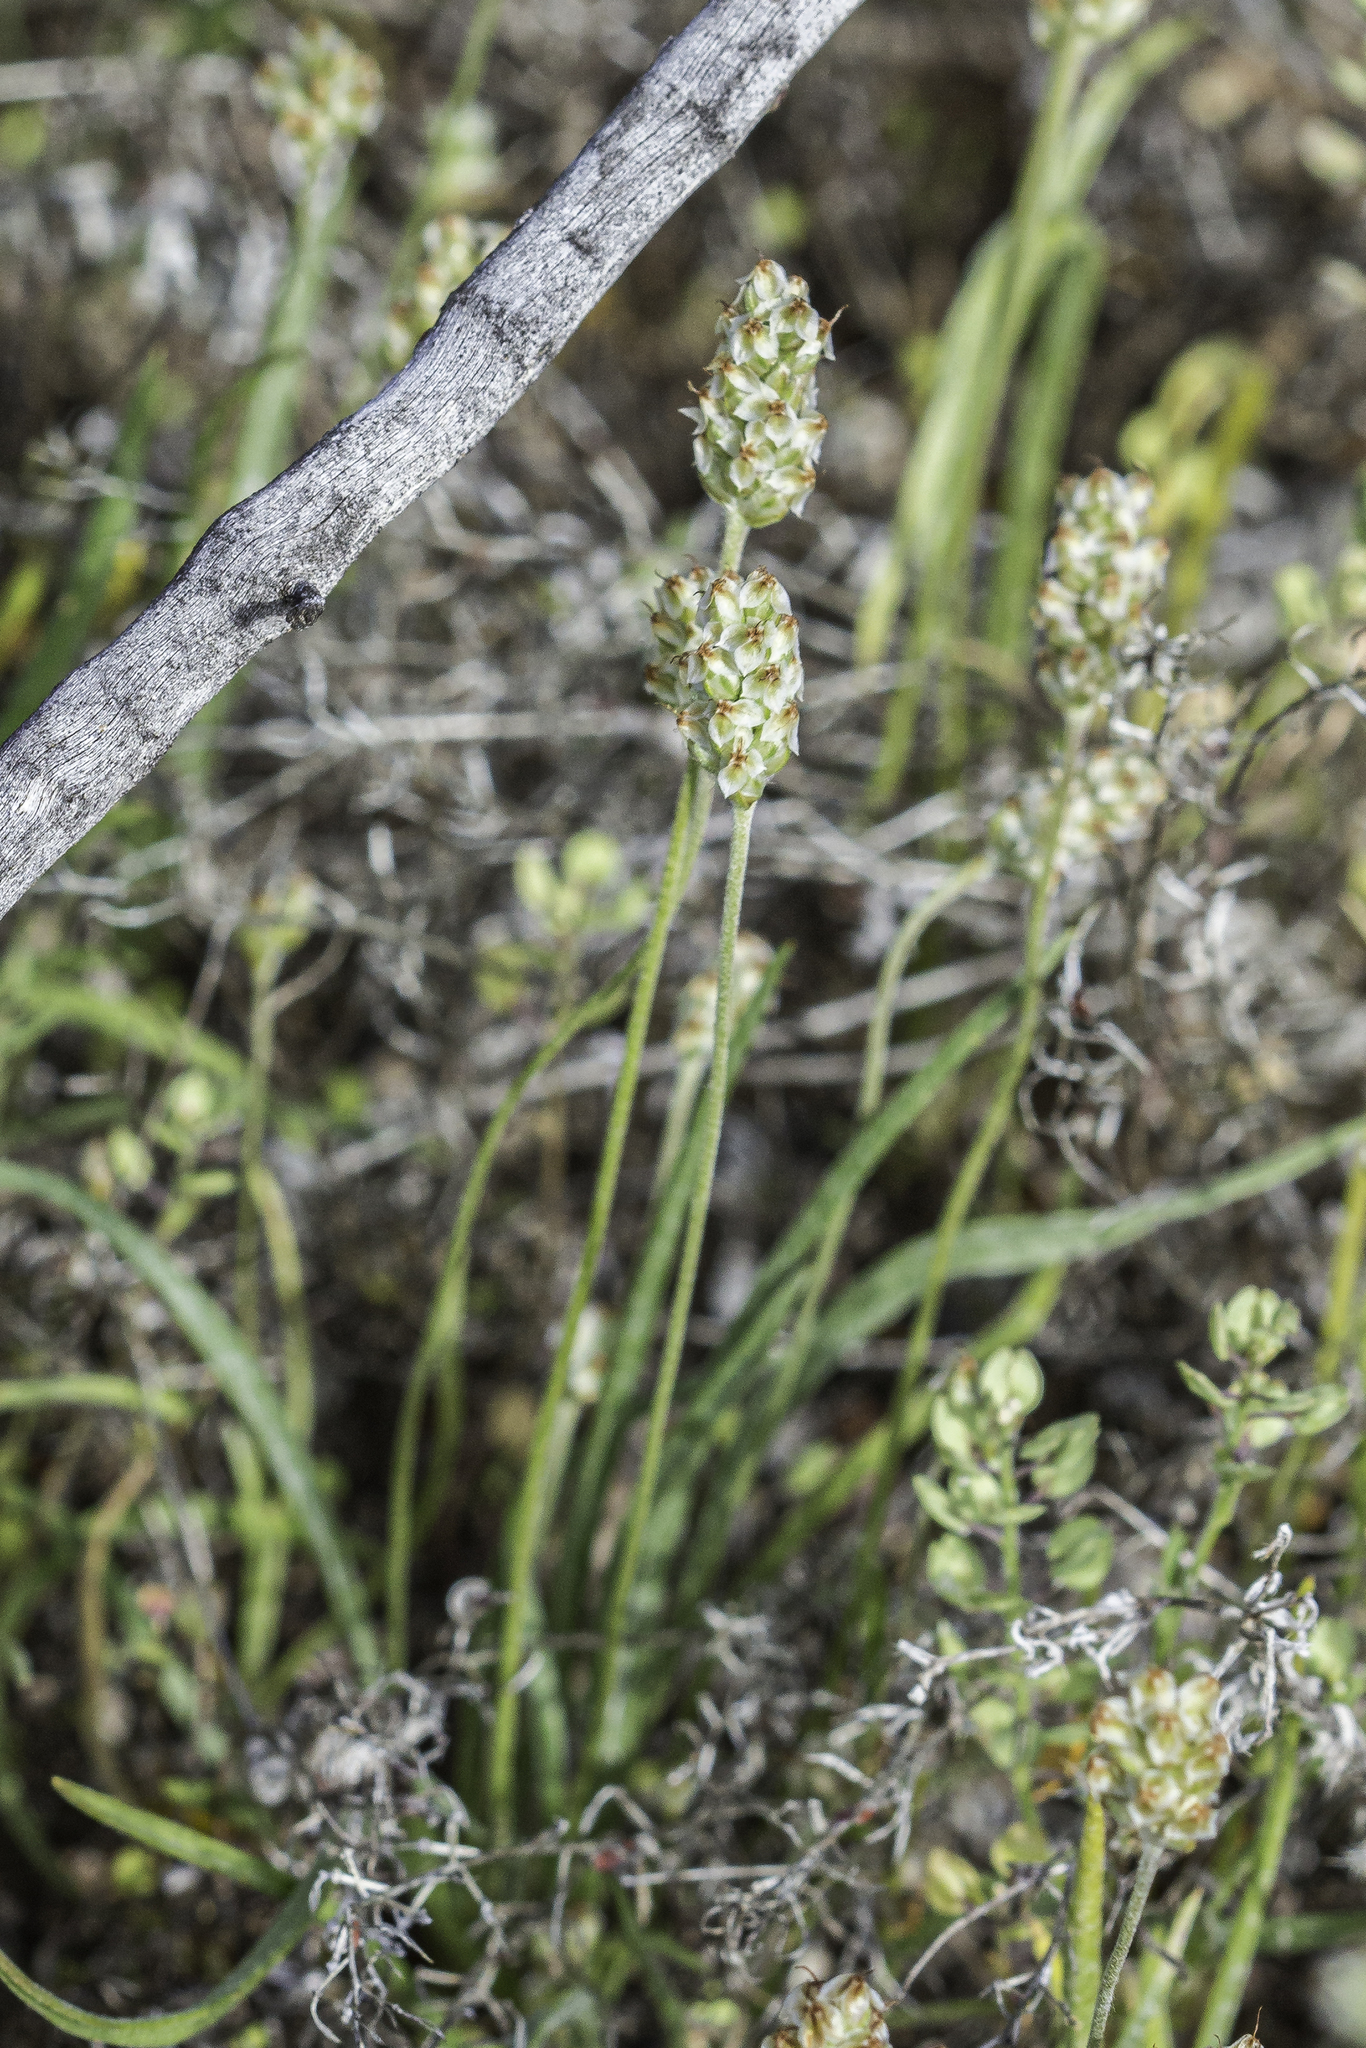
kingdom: Plantae
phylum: Tracheophyta
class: Magnoliopsida
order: Lamiales
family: Plantaginaceae
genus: Plantago
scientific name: Plantago ovata
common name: Blond plantain
